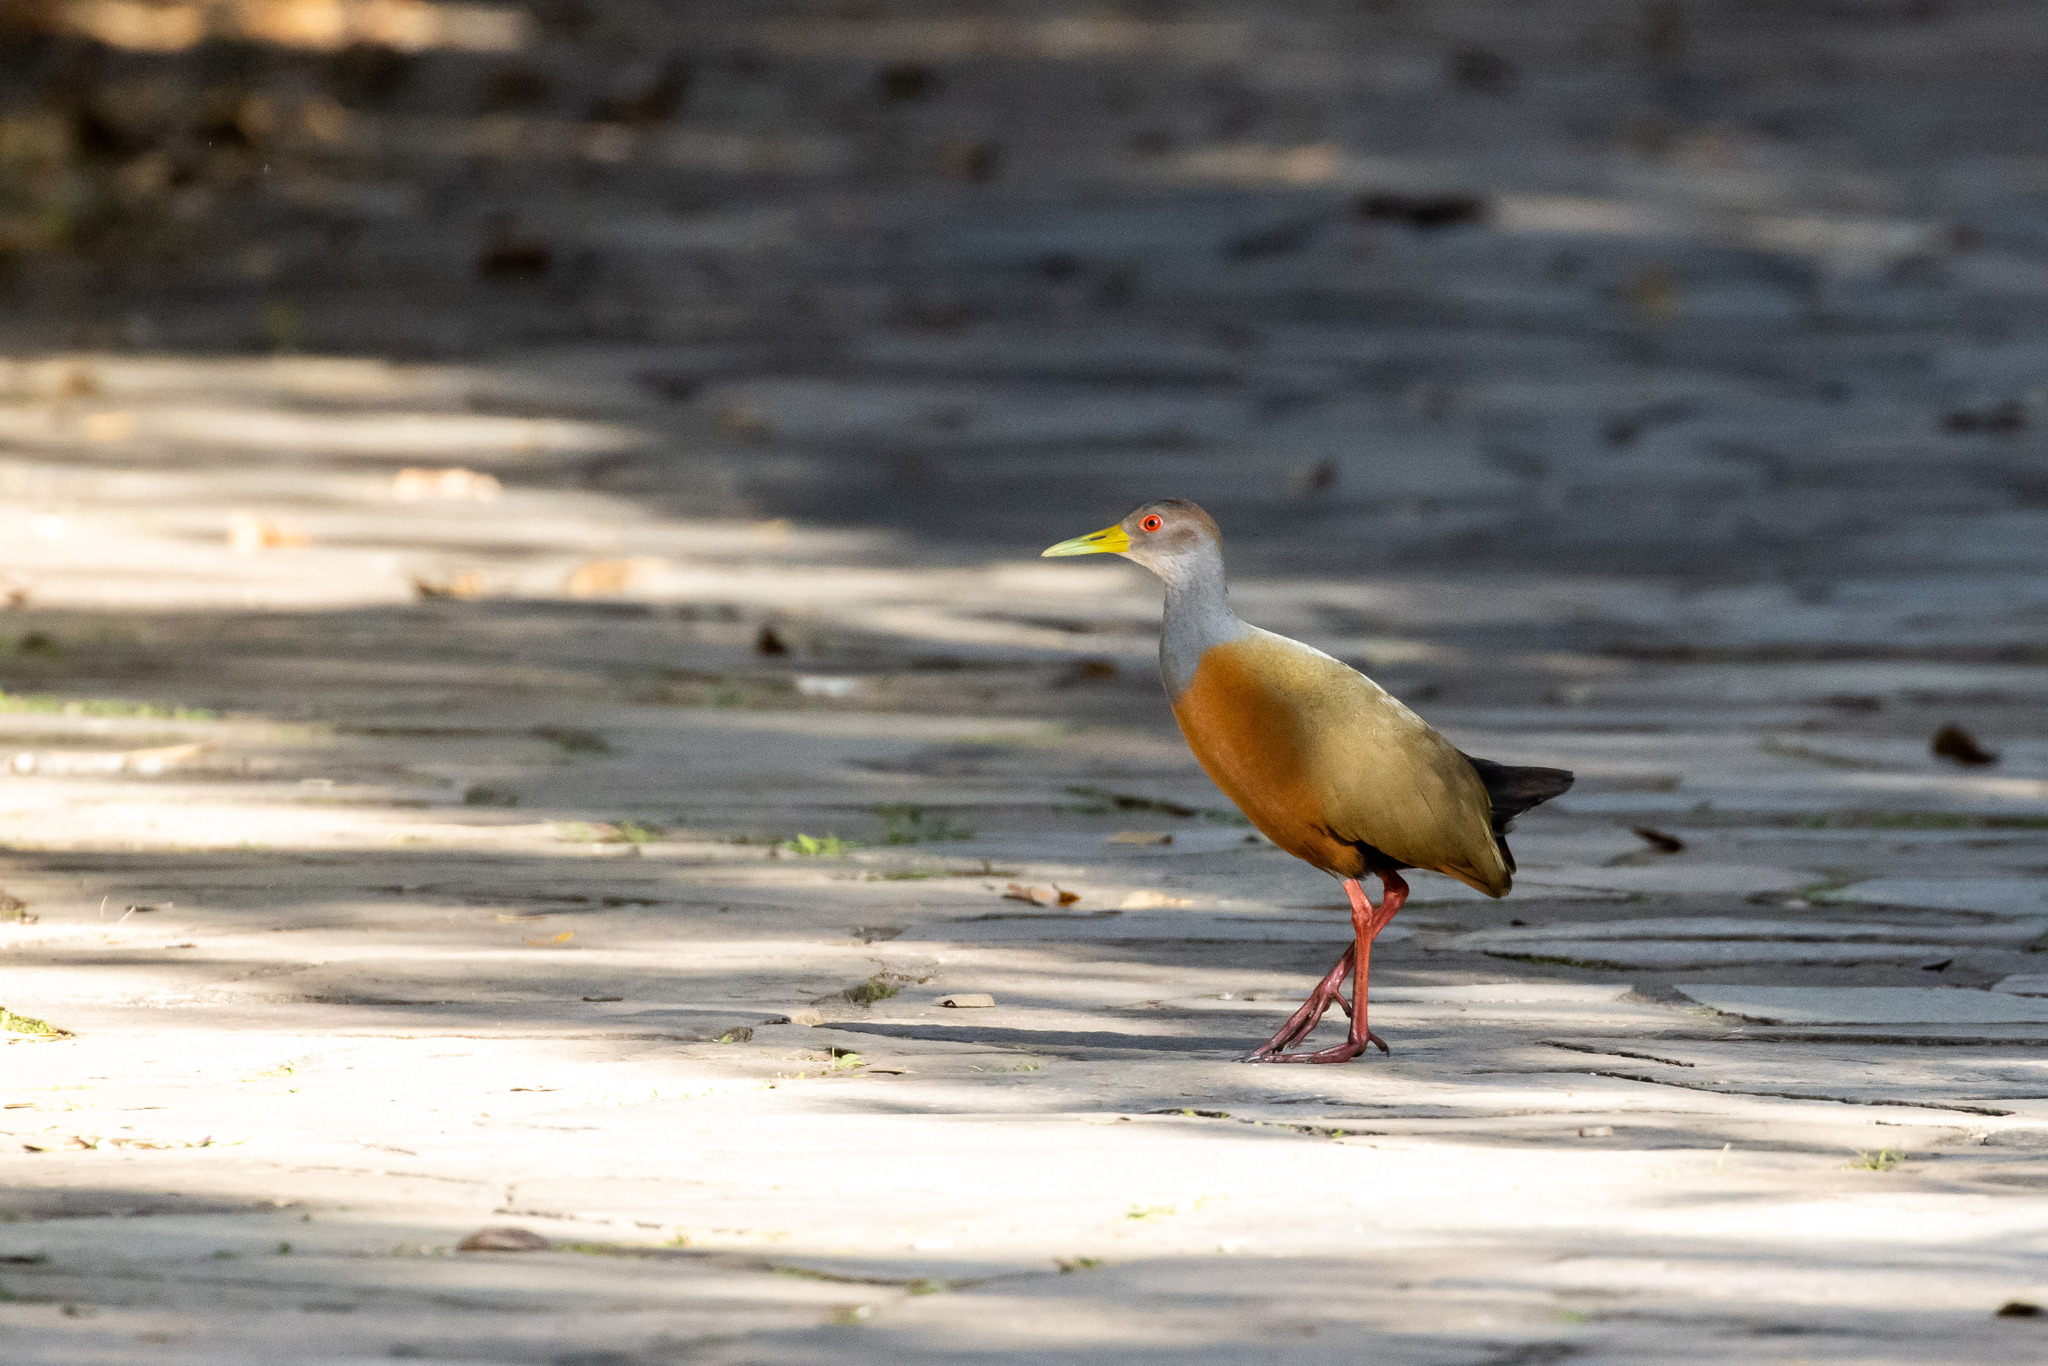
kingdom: Animalia
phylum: Chordata
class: Aves
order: Gruiformes
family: Rallidae
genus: Aramides
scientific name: Aramides cajanea
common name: Gray-necked wood-rail
